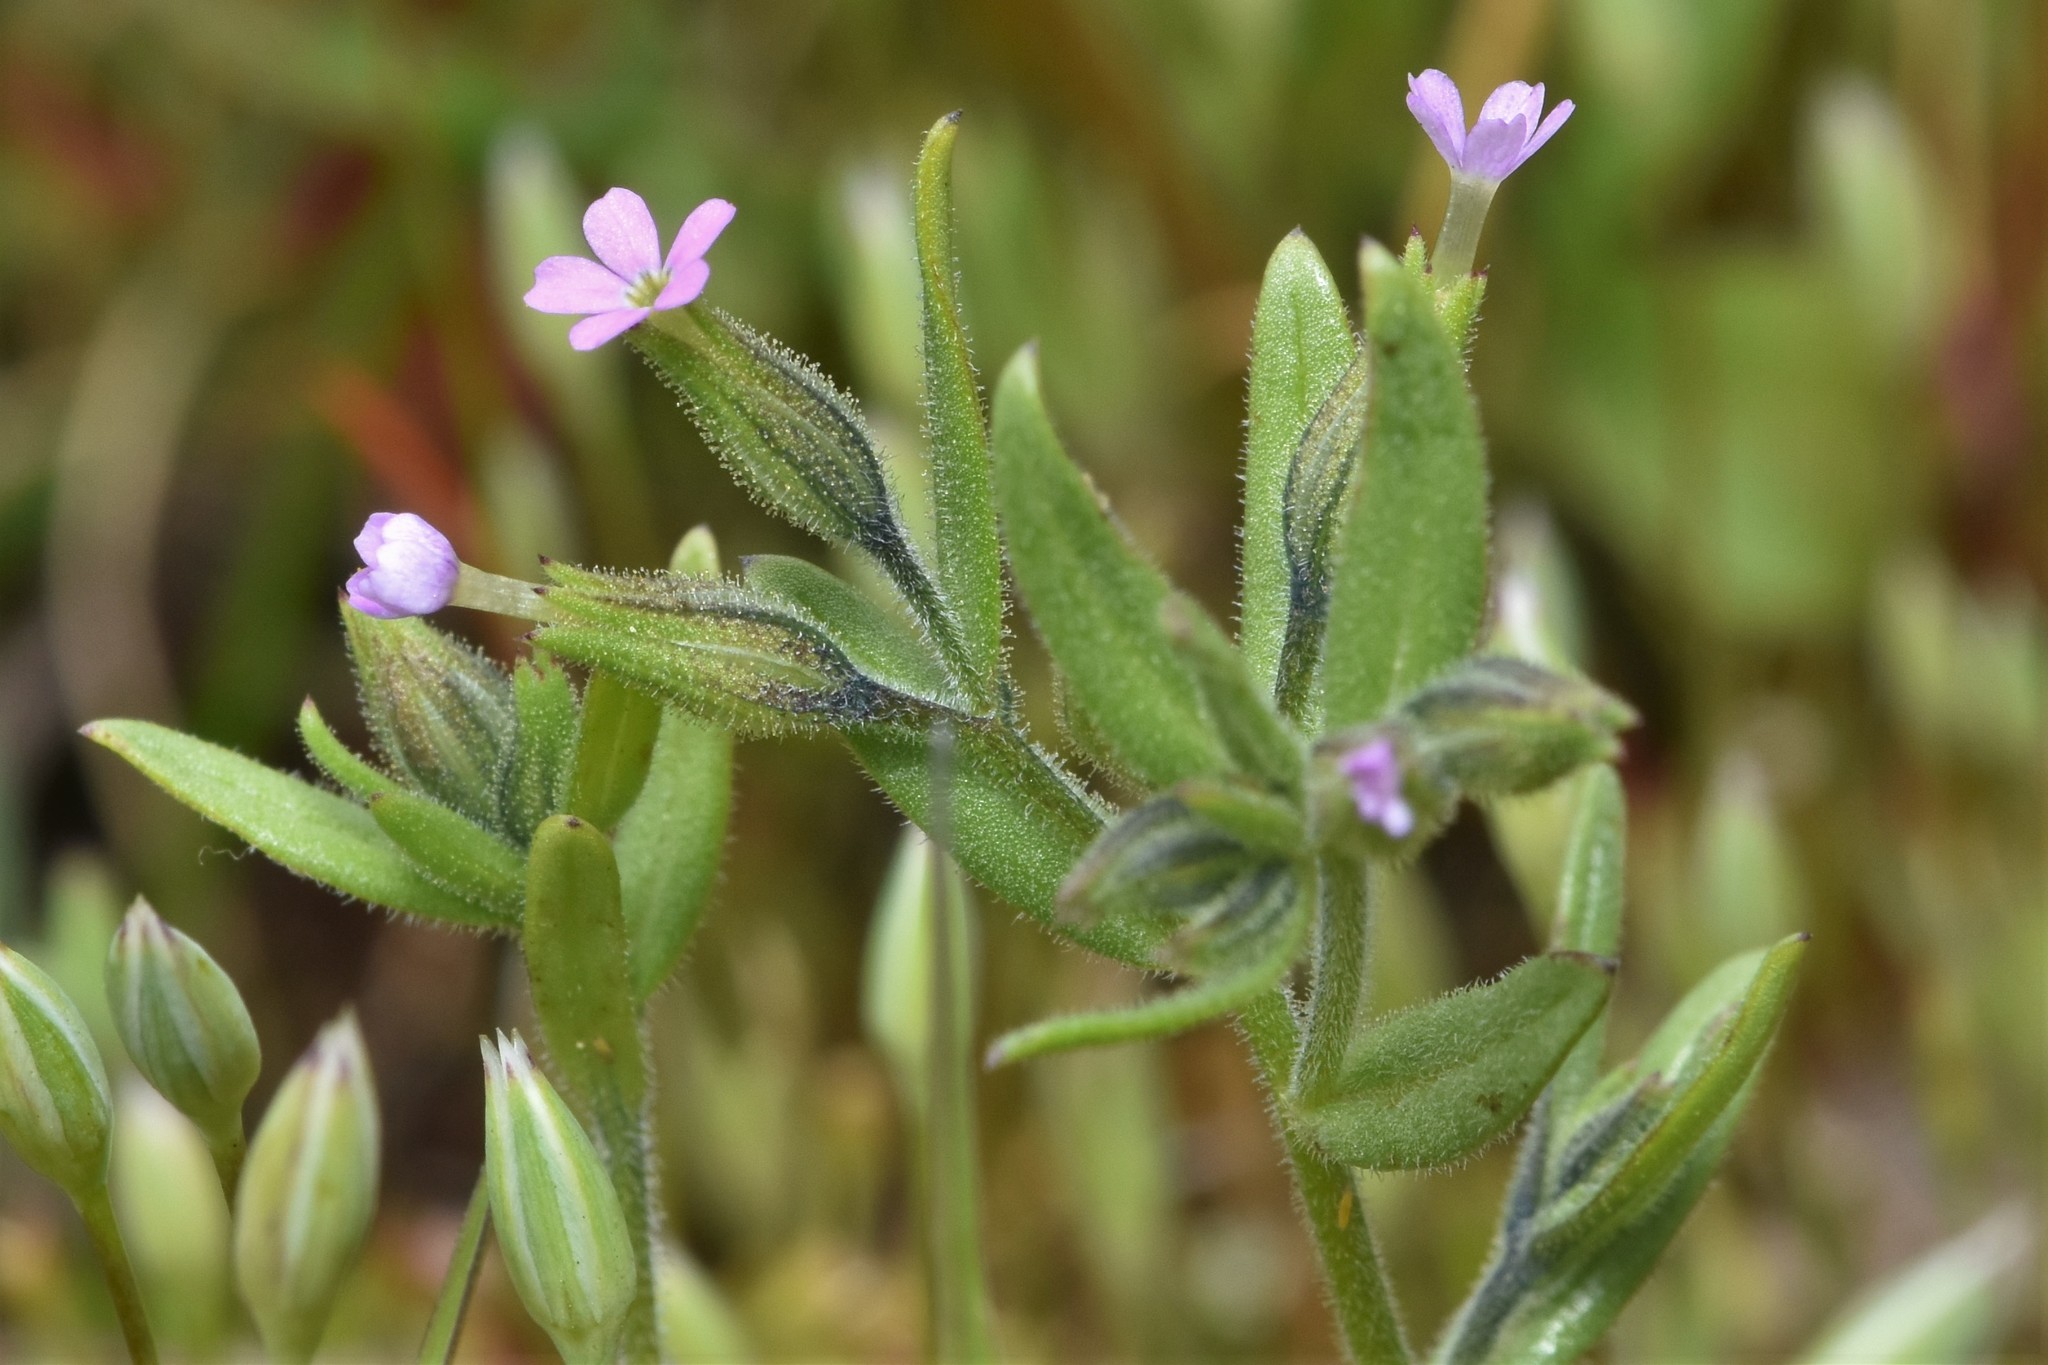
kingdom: Plantae
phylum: Tracheophyta
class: Magnoliopsida
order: Ericales
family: Polemoniaceae
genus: Phlox
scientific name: Phlox gracilis
